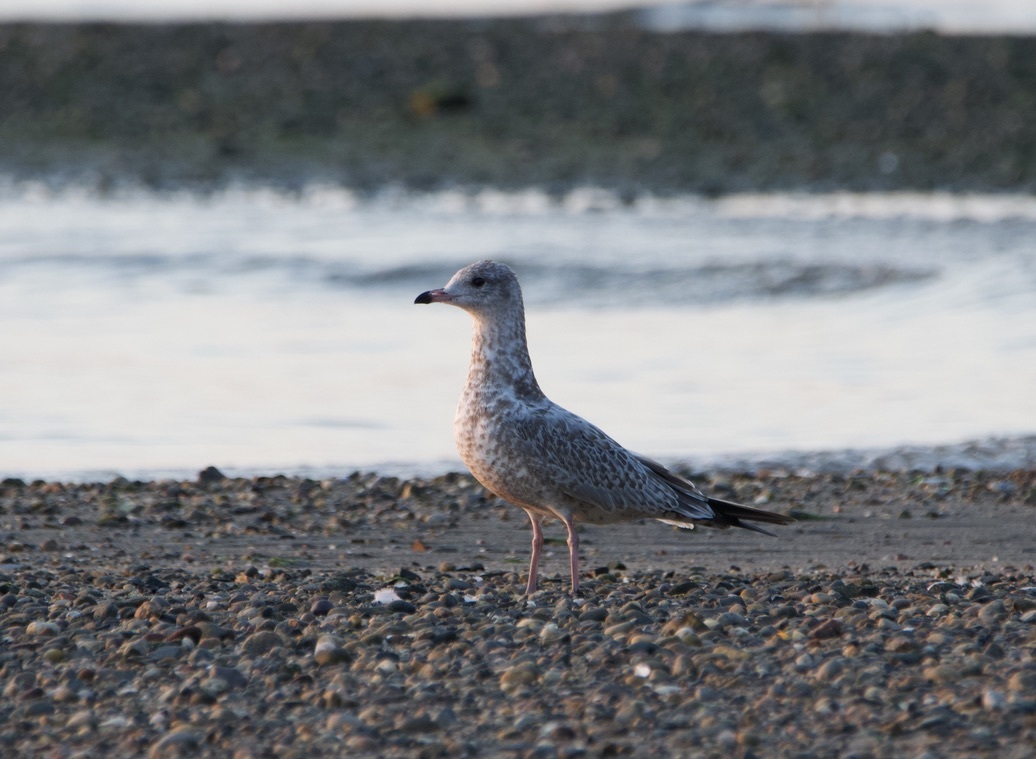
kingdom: Animalia
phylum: Chordata
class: Aves
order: Charadriiformes
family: Laridae
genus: Larus
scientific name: Larus delawarensis
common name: Ring-billed gull
